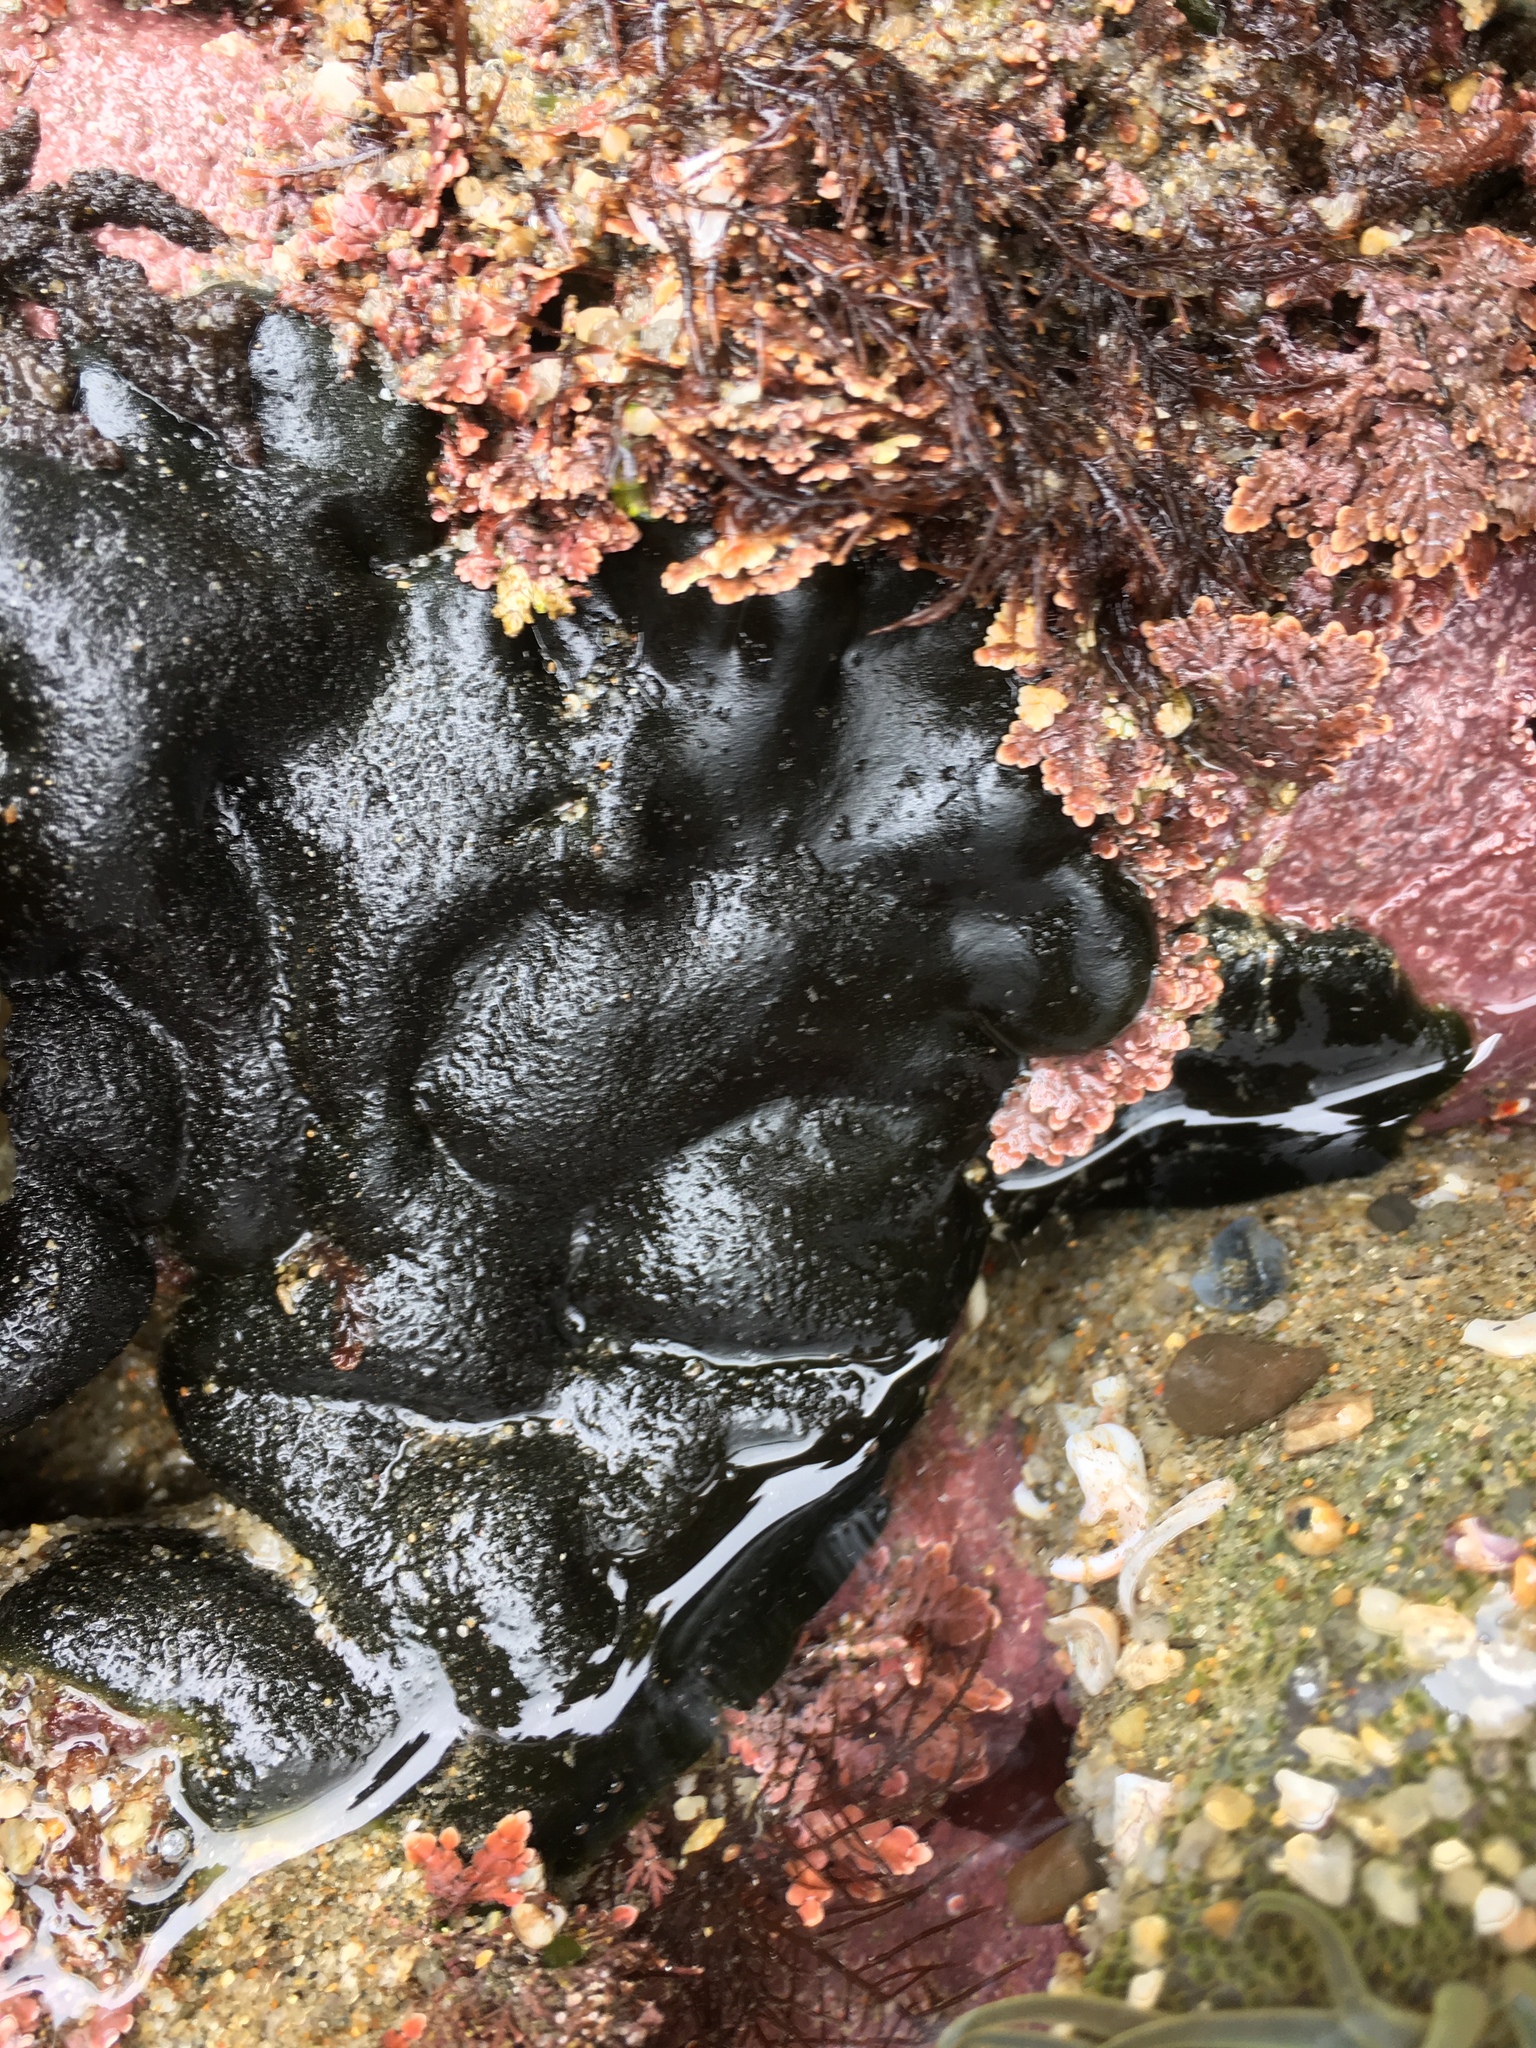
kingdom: Plantae
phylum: Chlorophyta
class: Ulvophyceae
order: Bryopsidales
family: Codiaceae
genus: Codium
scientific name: Codium setchellii
